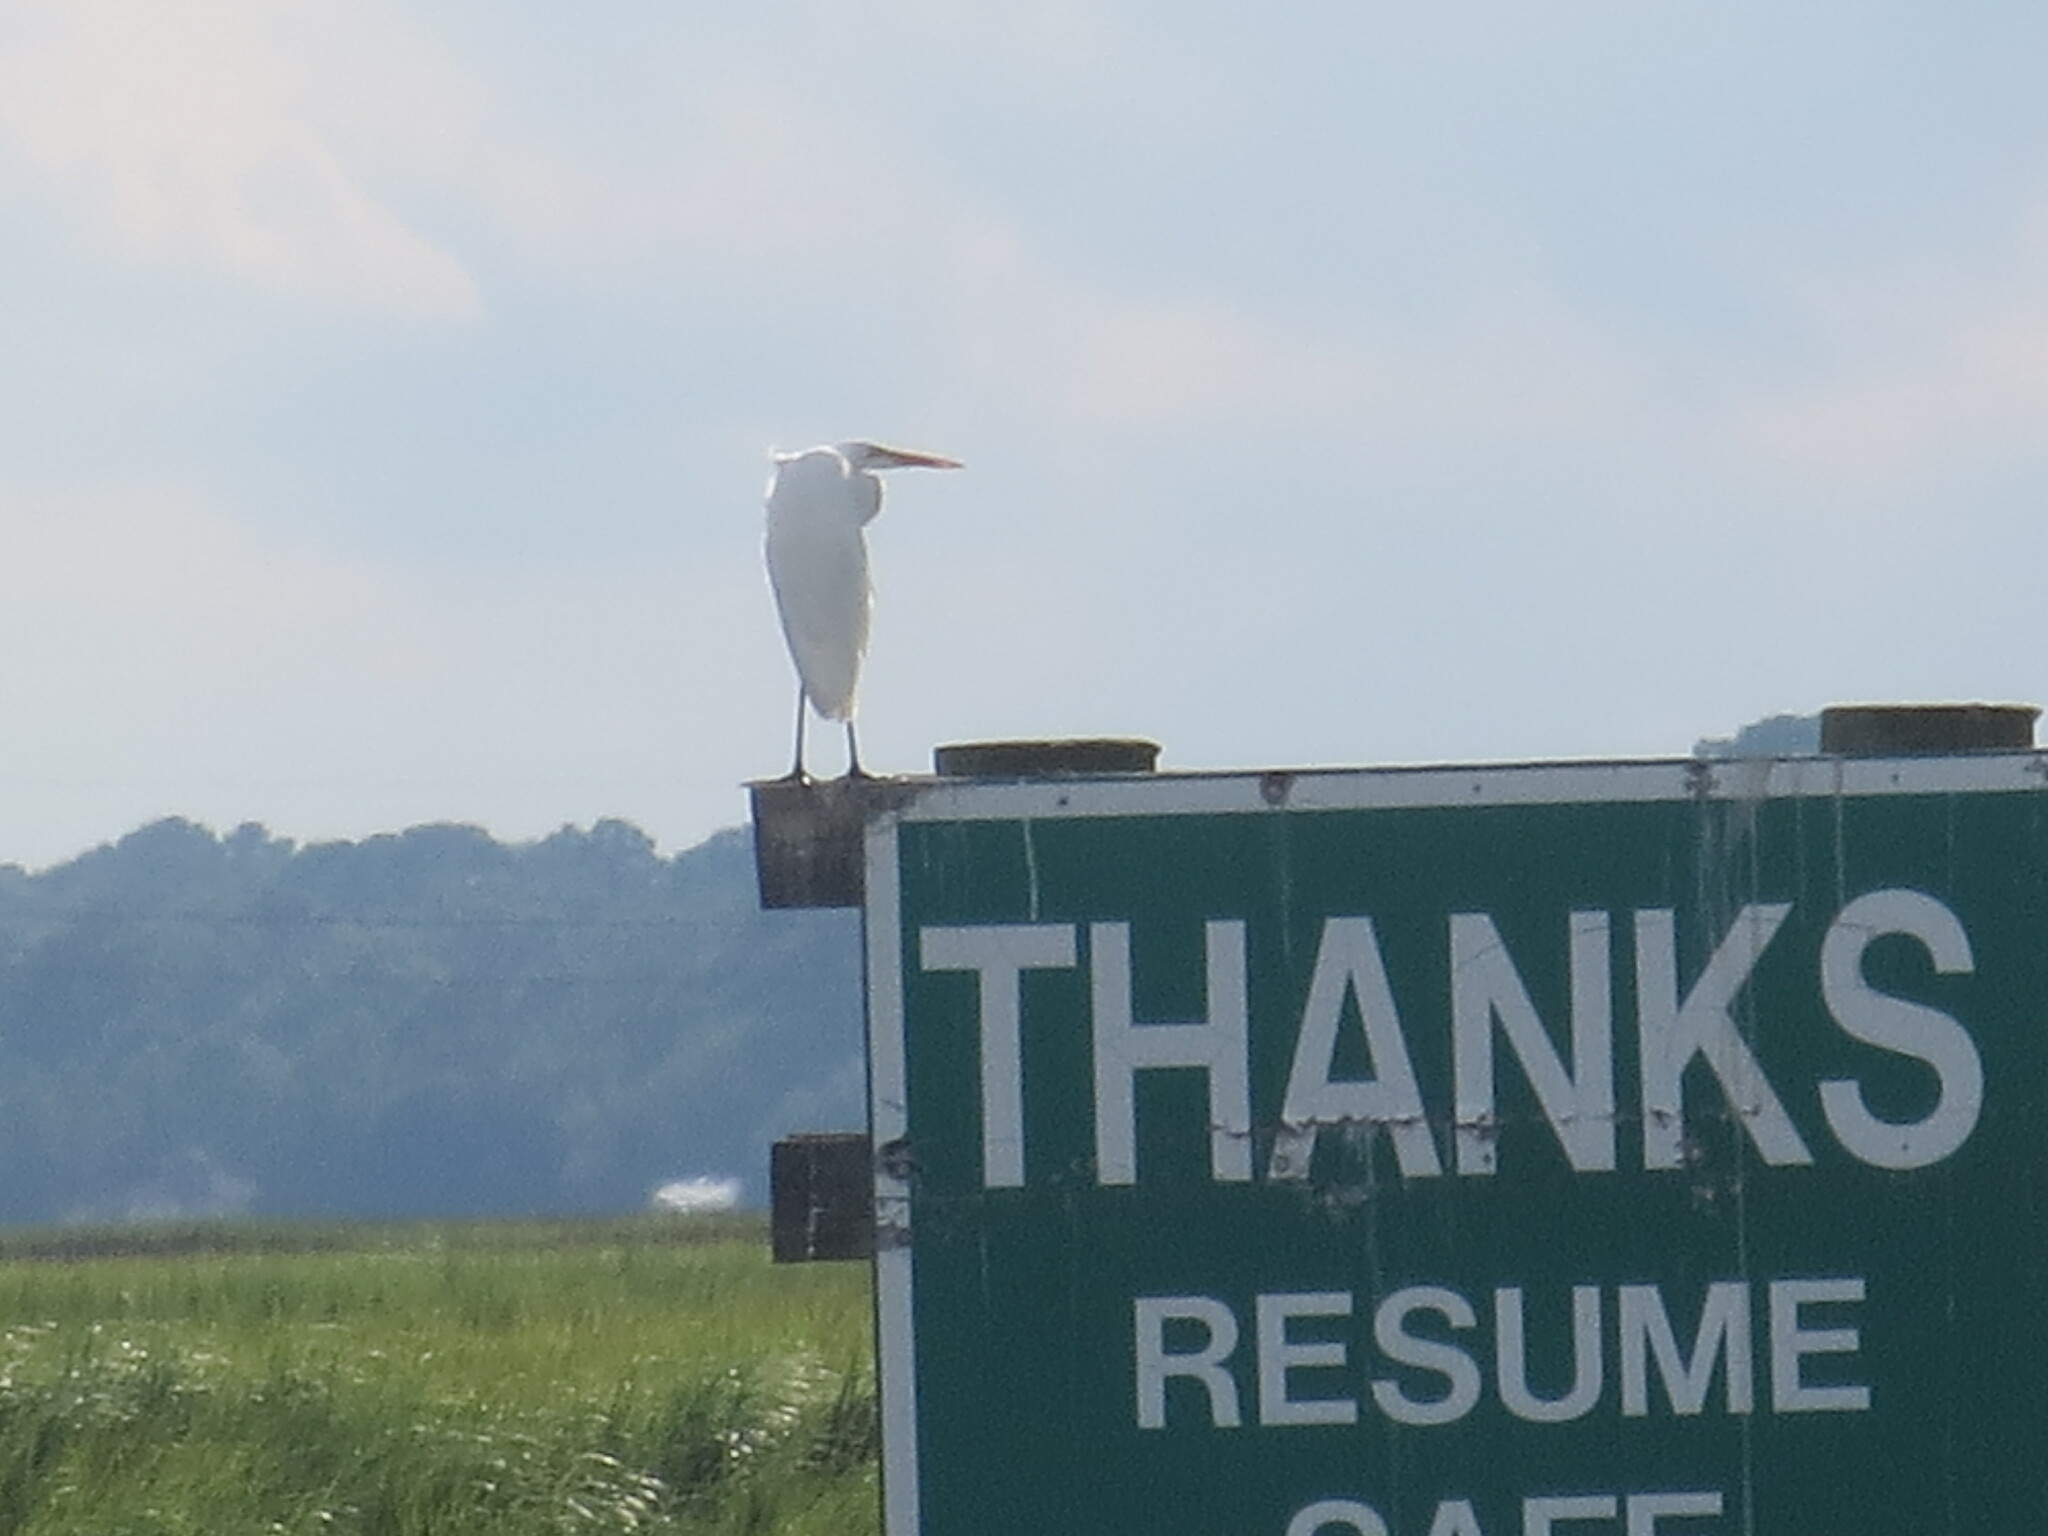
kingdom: Animalia
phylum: Chordata
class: Aves
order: Pelecaniformes
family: Ardeidae
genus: Ardea
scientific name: Ardea alba
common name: Great egret
